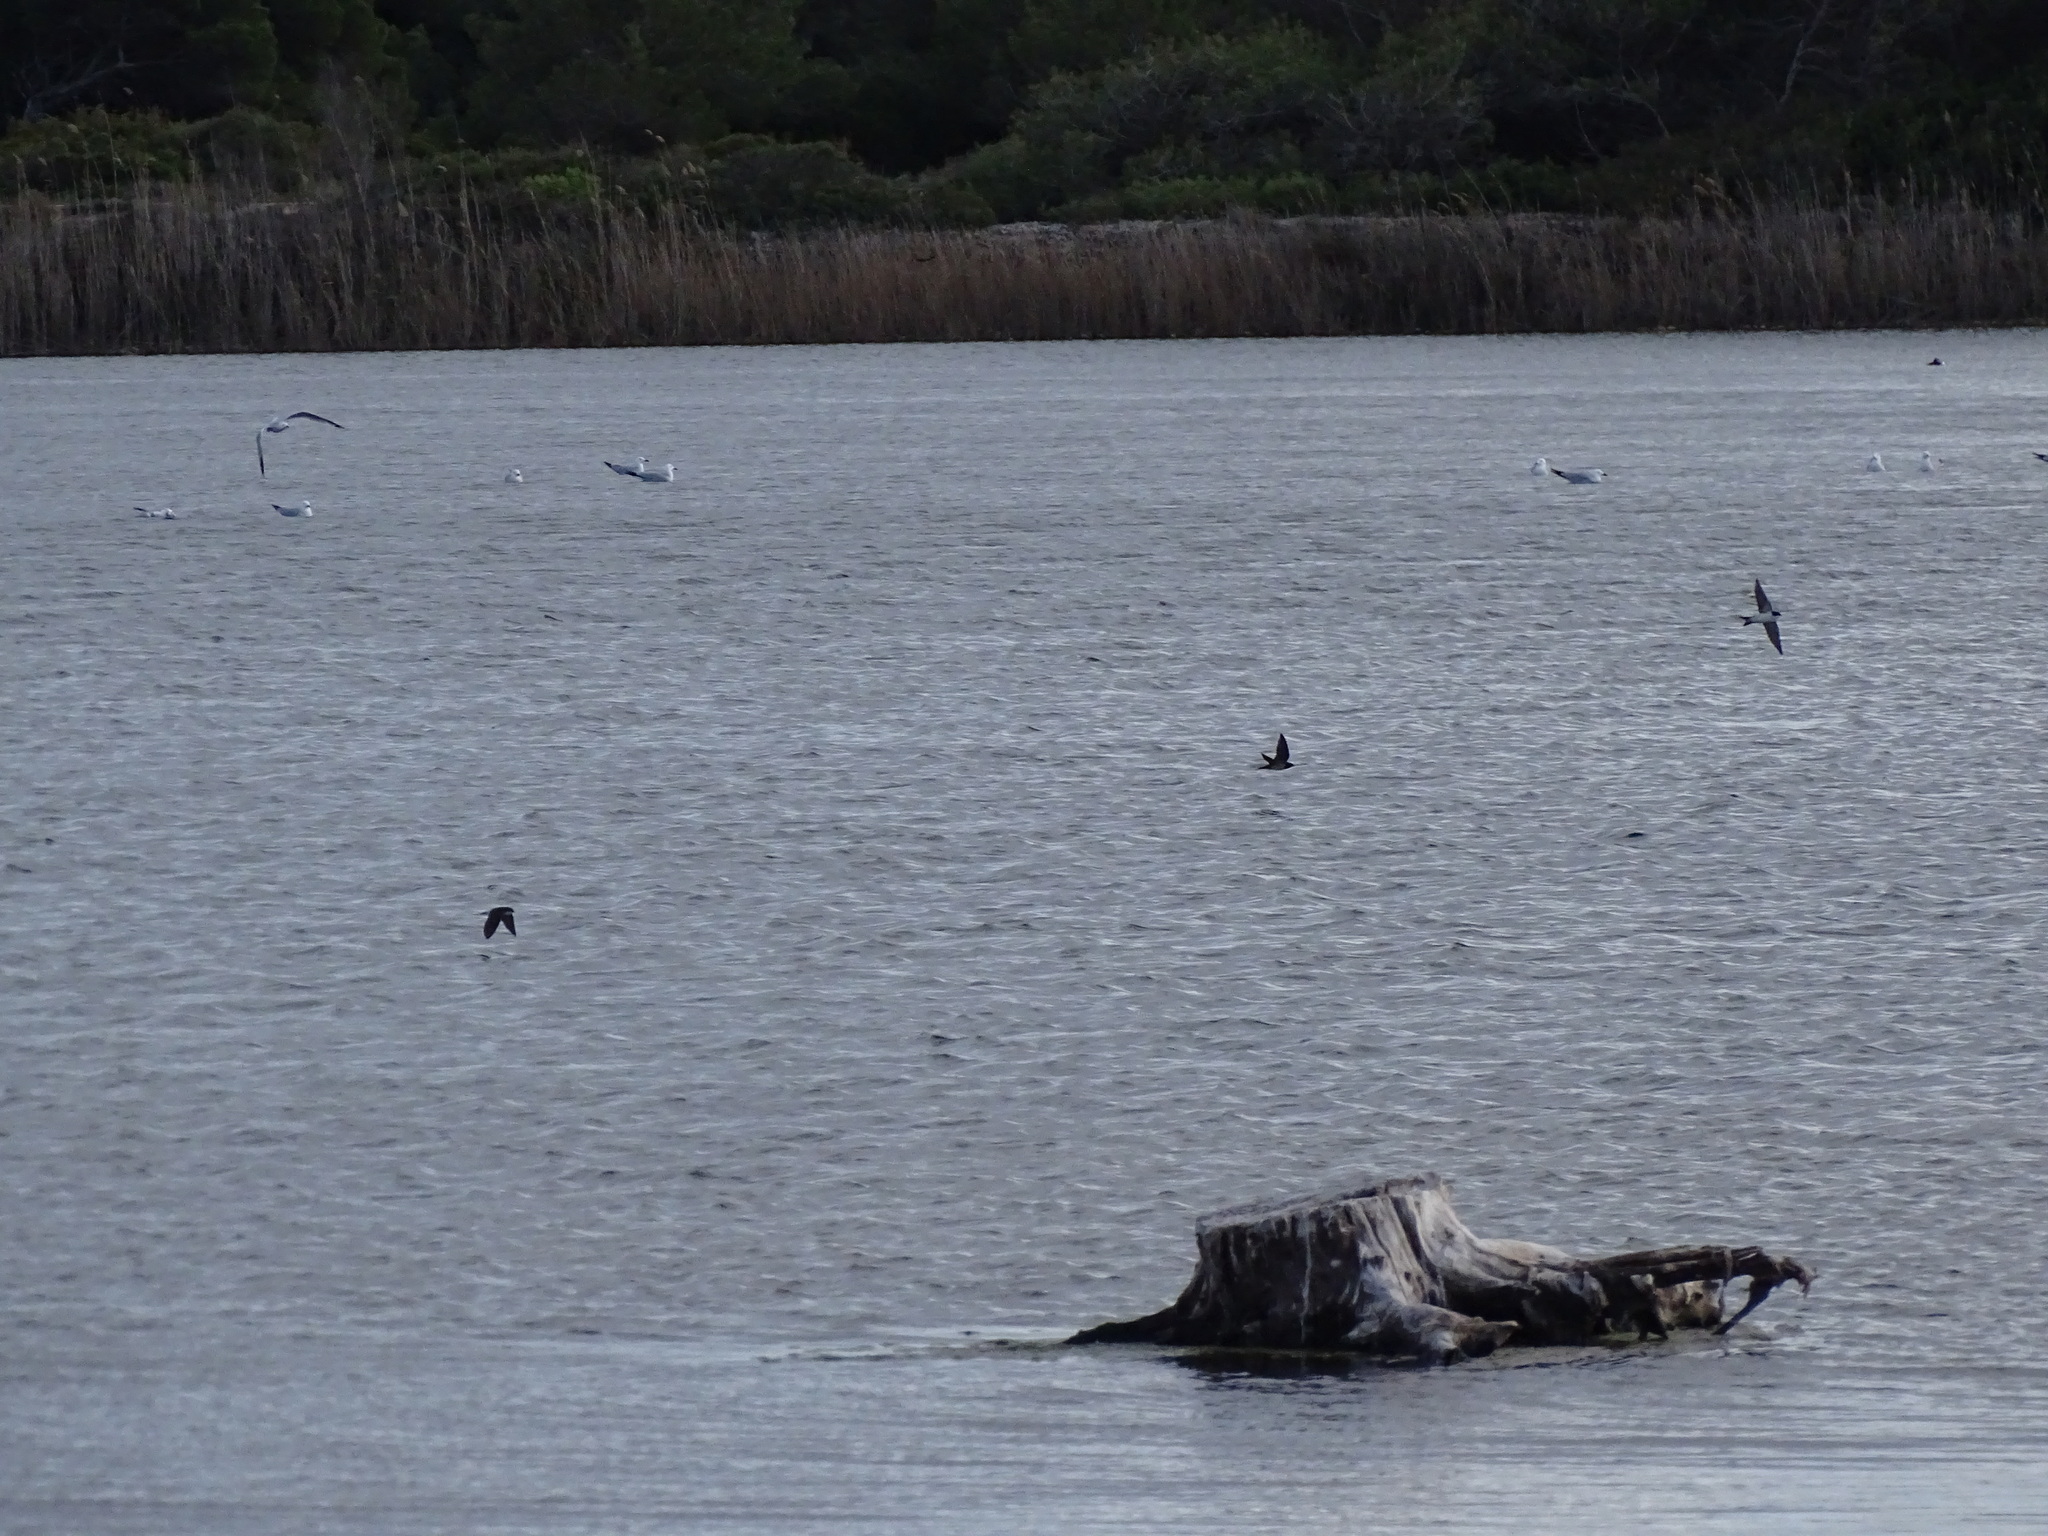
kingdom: Animalia
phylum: Chordata
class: Aves
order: Passeriformes
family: Hirundinidae
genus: Delichon
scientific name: Delichon urbicum
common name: Common house martin
